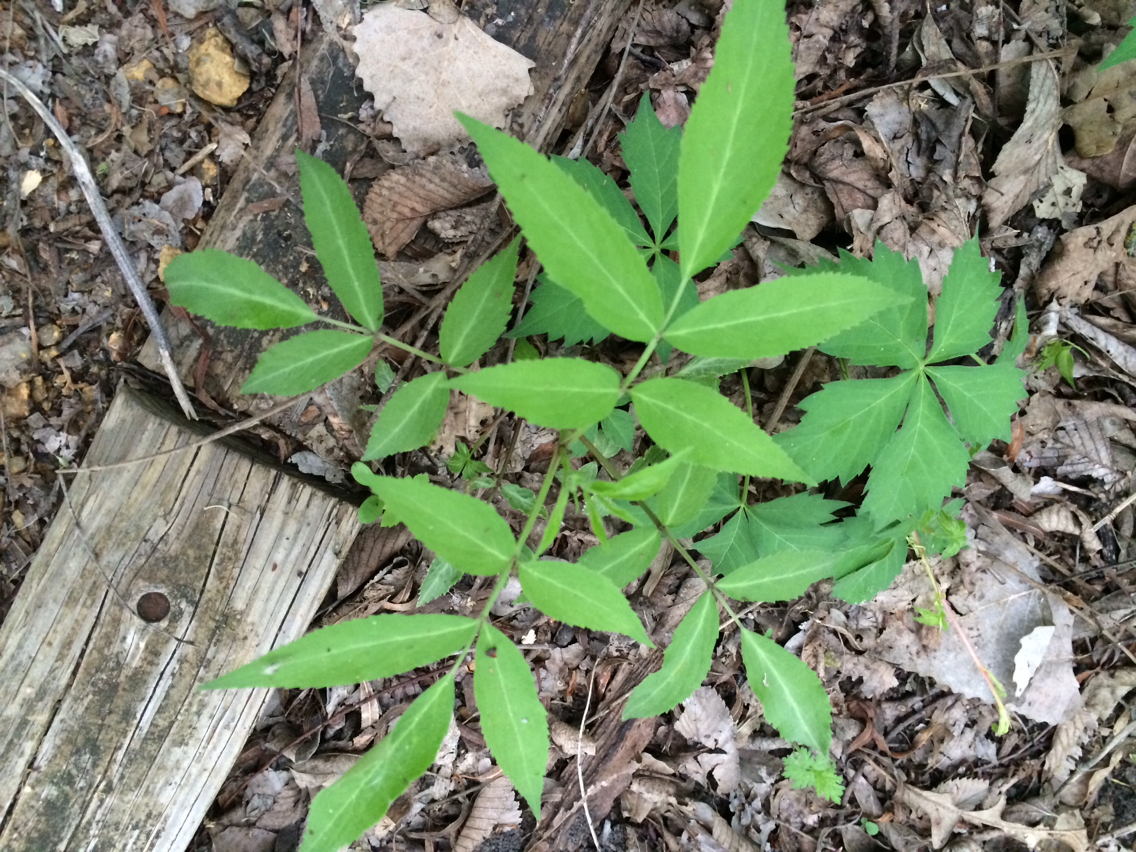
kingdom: Plantae
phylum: Tracheophyta
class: Magnoliopsida
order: Dipsacales
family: Viburnaceae
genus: Sambucus
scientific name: Sambucus canadensis
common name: American elder
